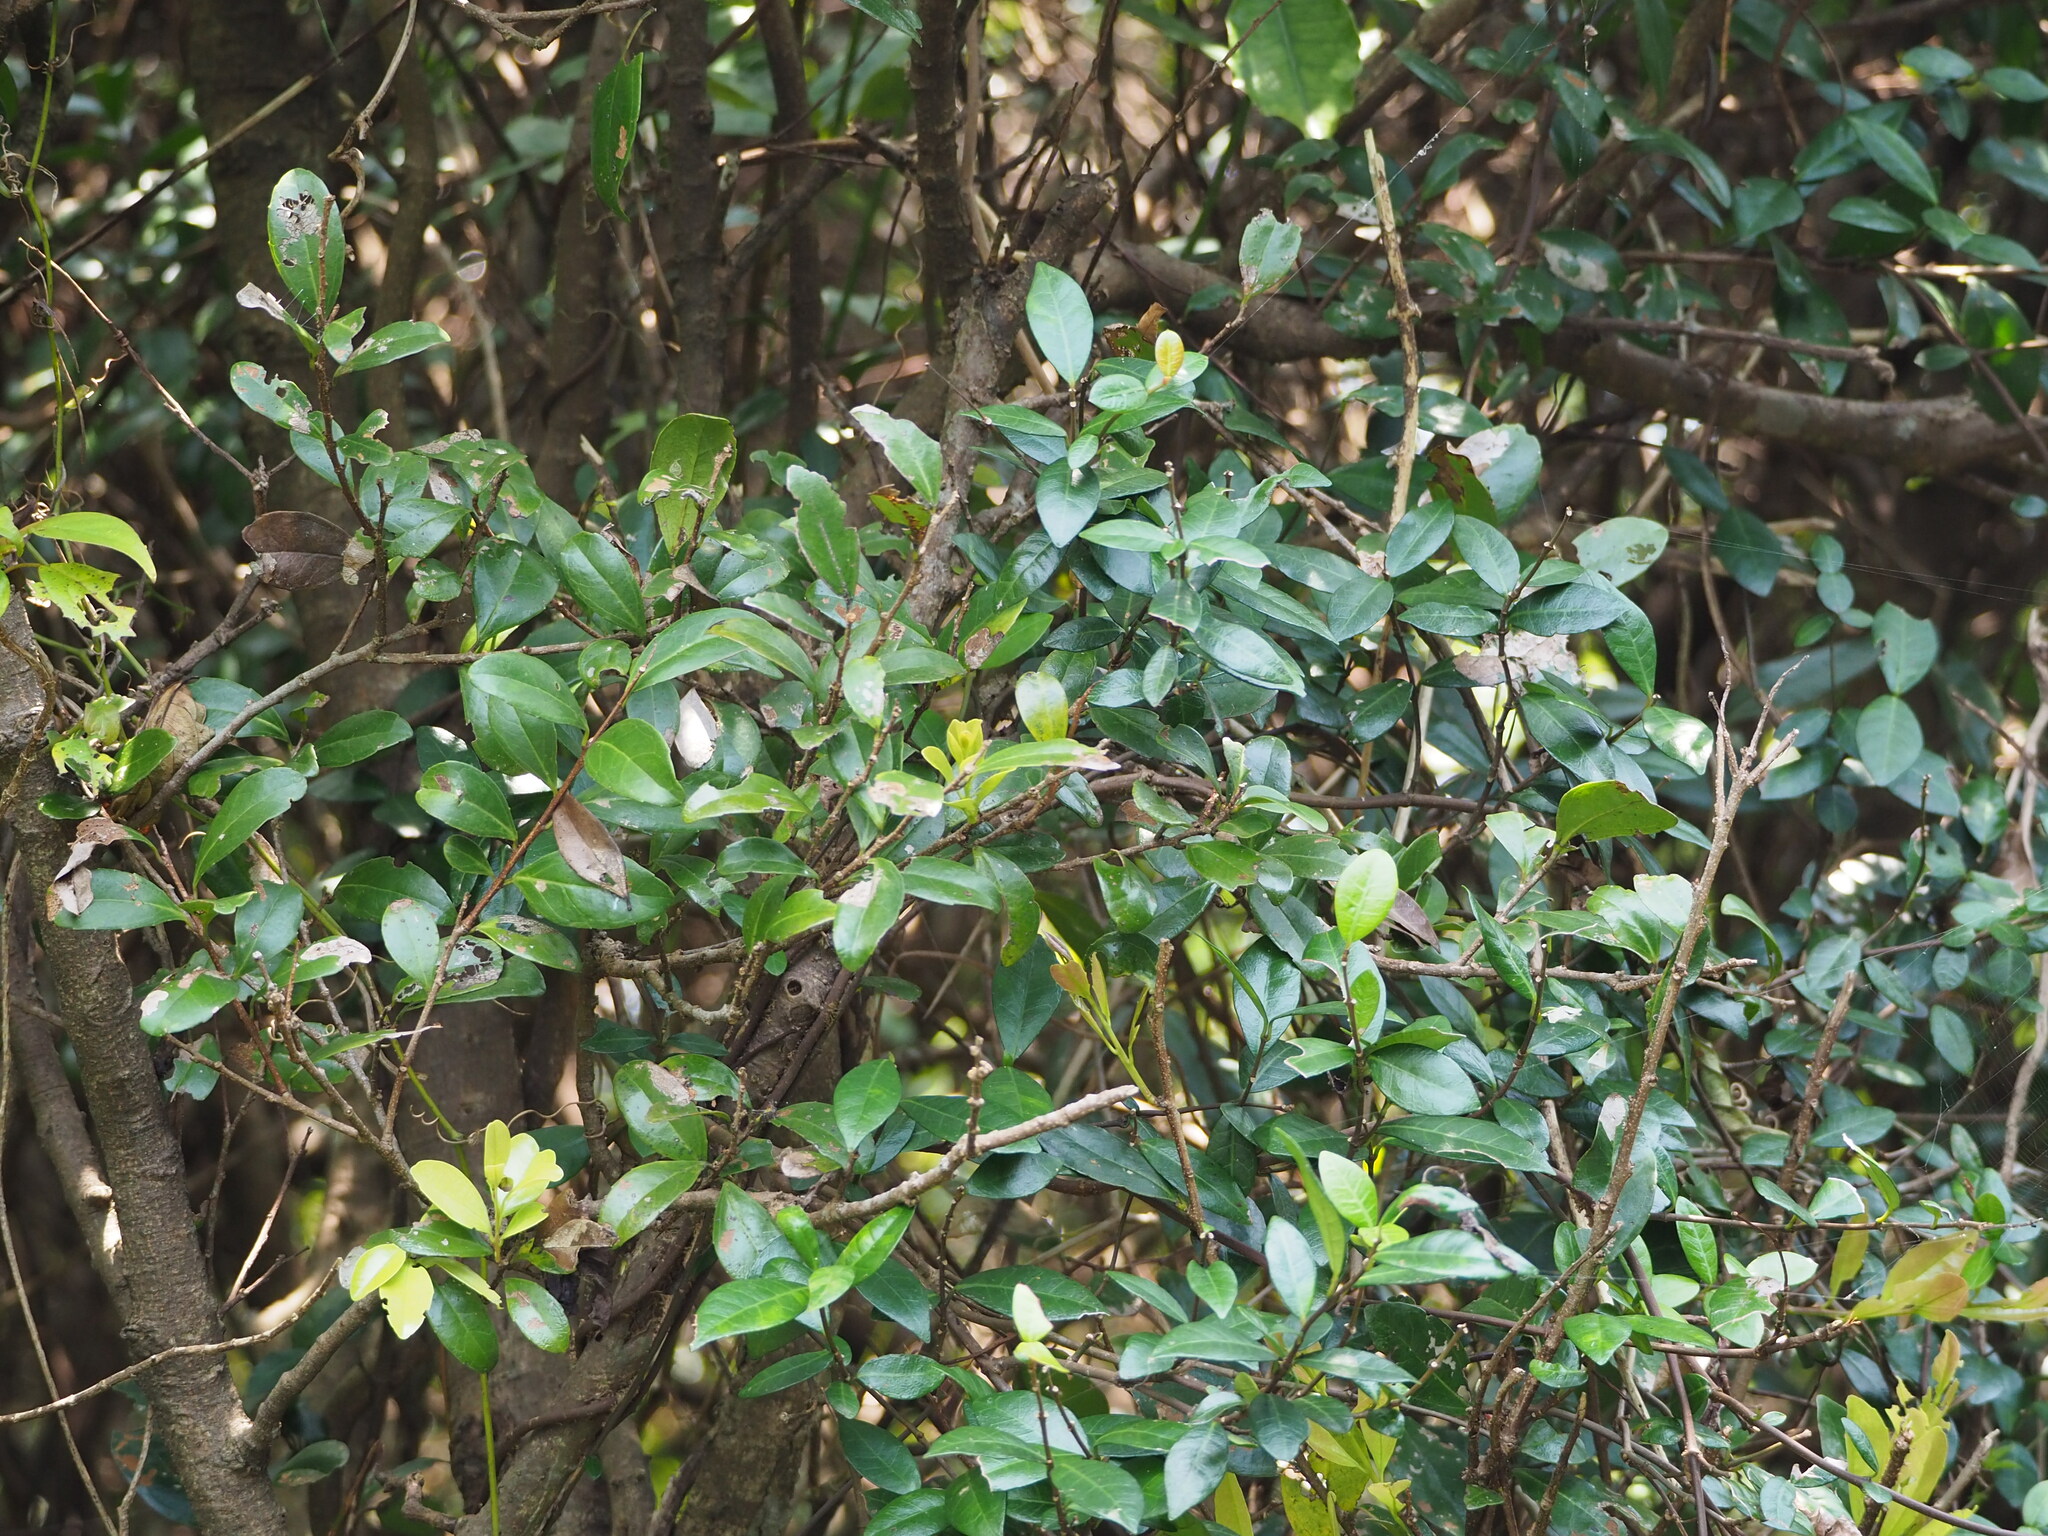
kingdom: Plantae
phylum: Tracheophyta
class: Magnoliopsida
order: Malpighiales
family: Salicaceae
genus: Scolopia
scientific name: Scolopia oldhamii
